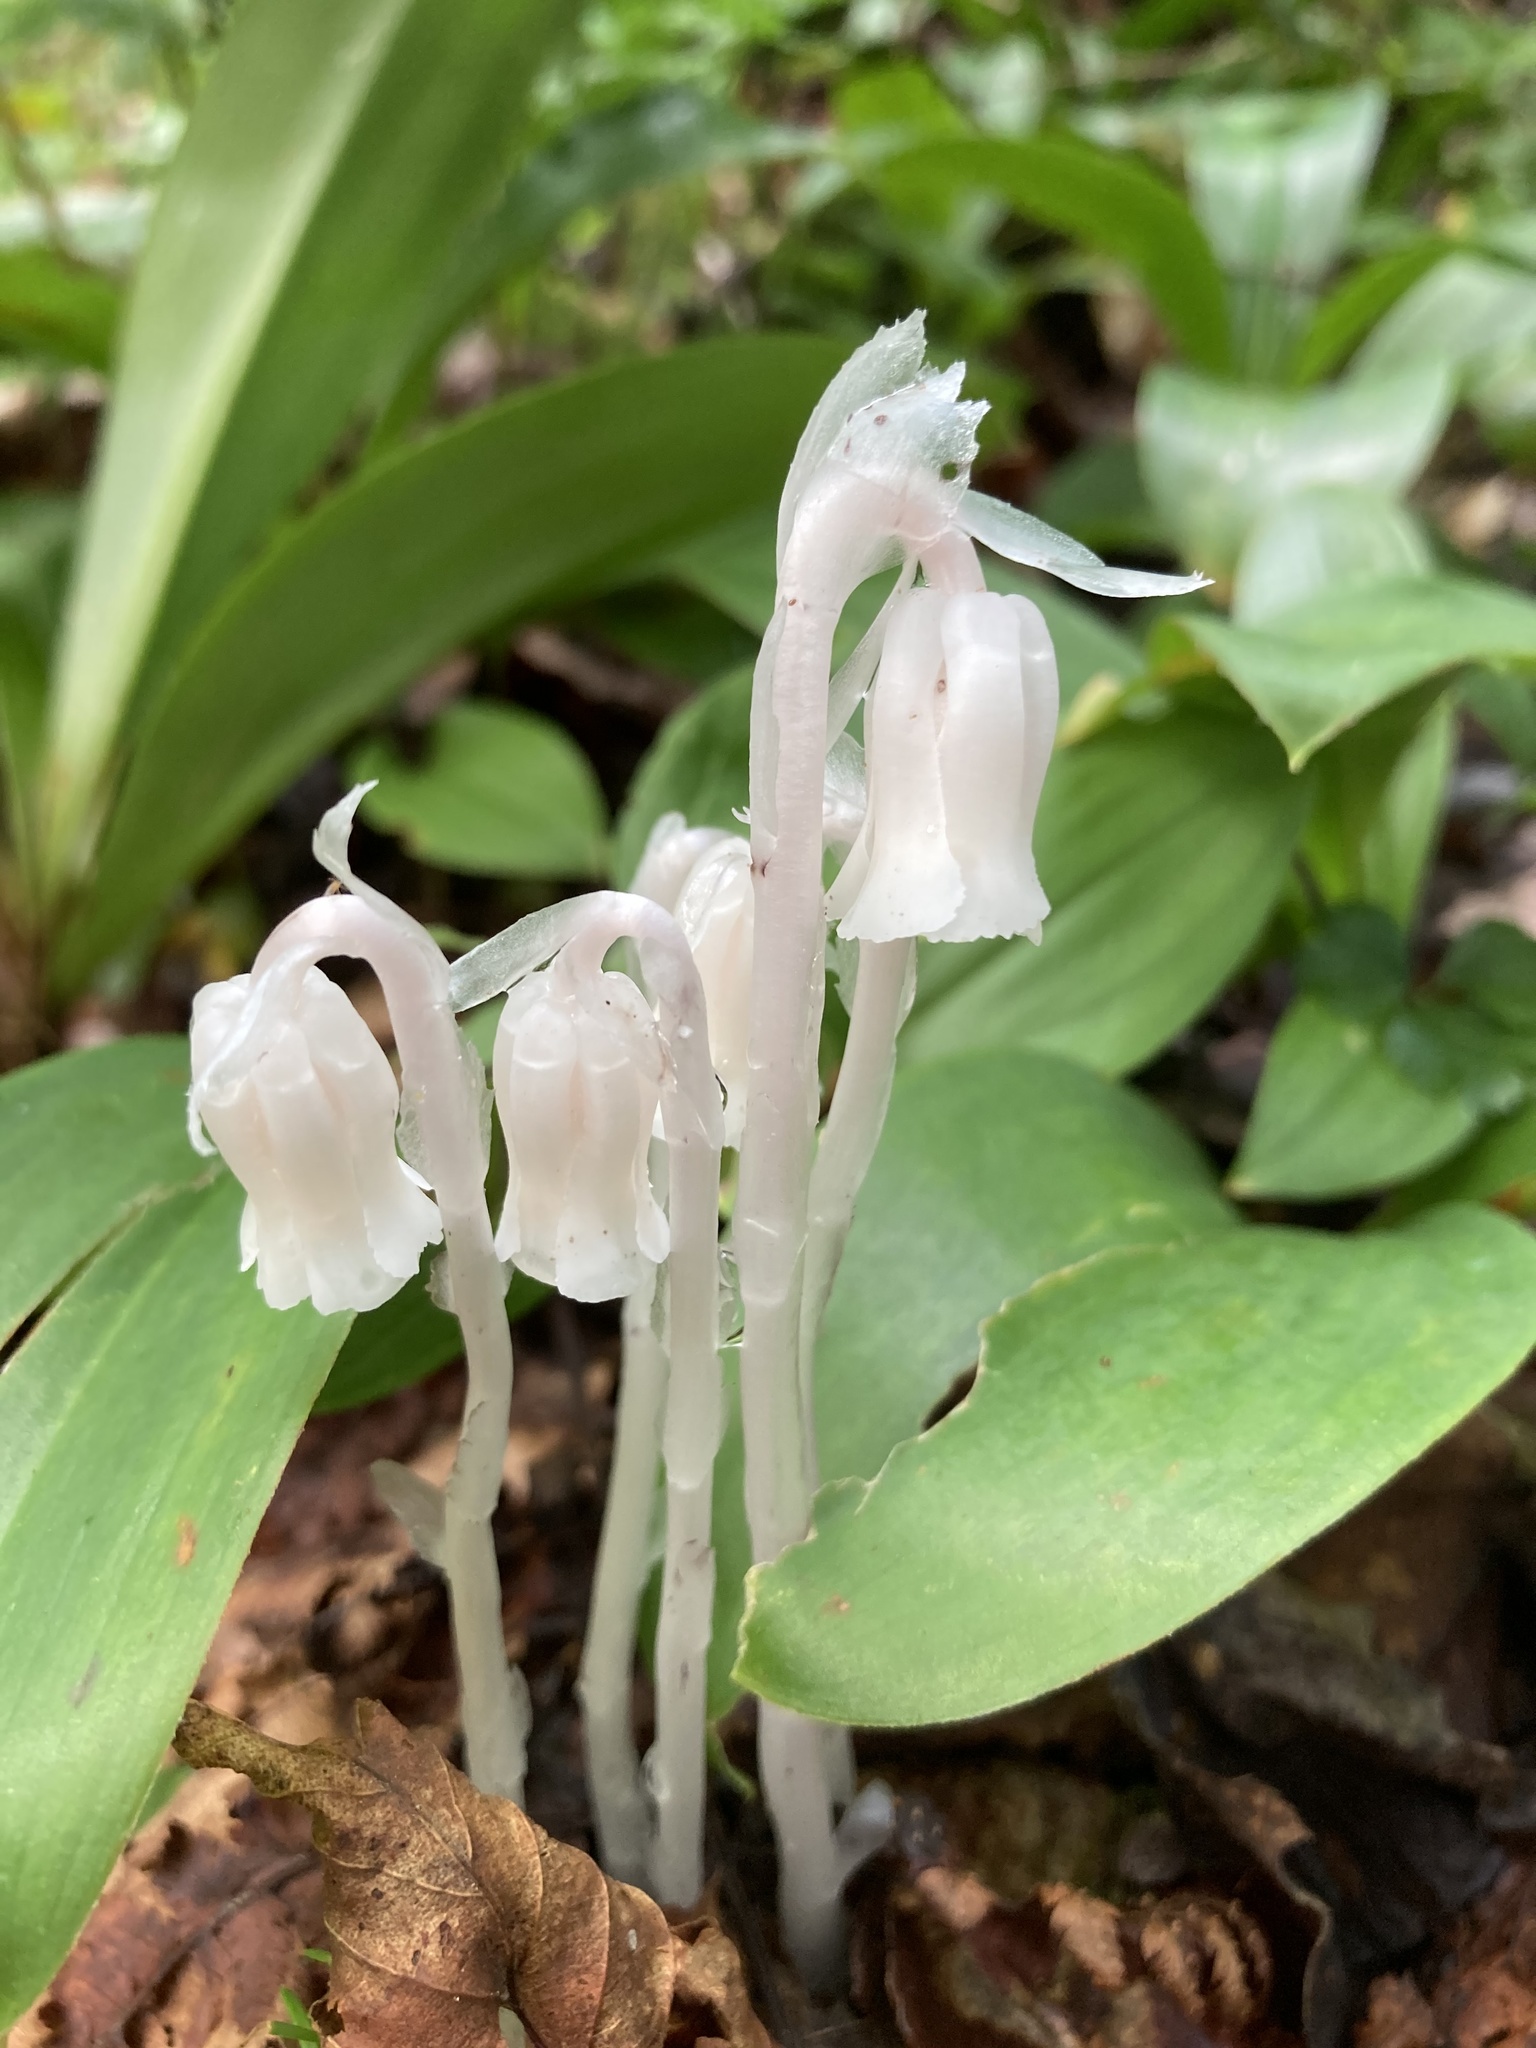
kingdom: Plantae
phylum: Tracheophyta
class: Magnoliopsida
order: Ericales
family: Ericaceae
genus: Monotropa
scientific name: Monotropa uniflora
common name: Convulsion root
